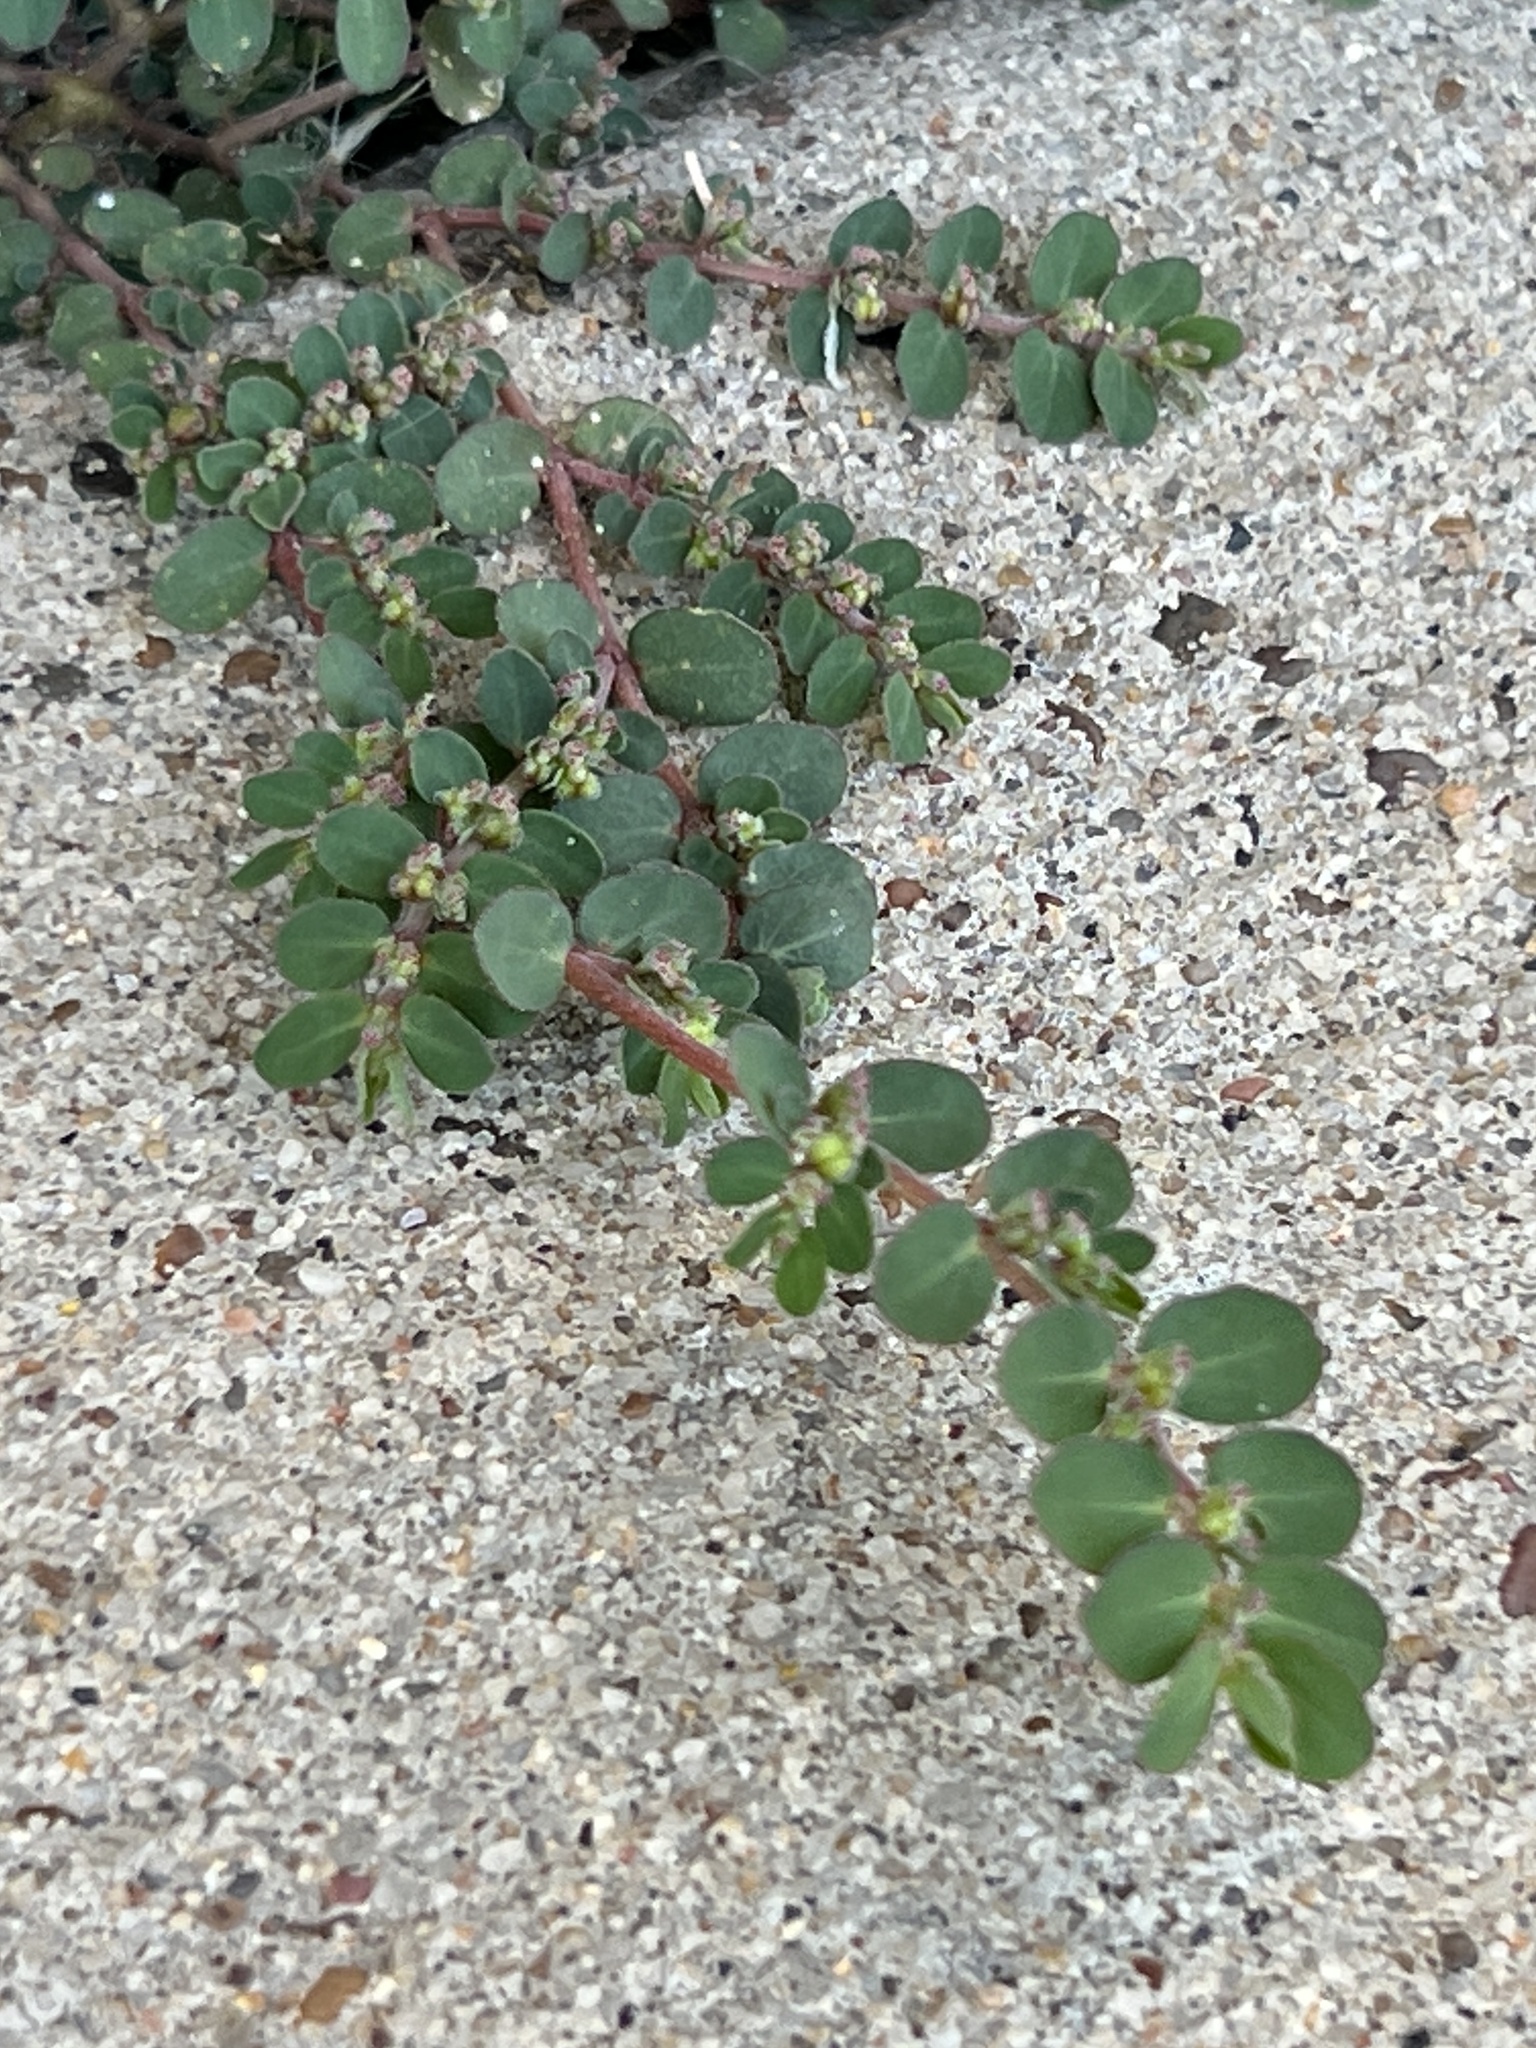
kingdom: Plantae
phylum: Tracheophyta
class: Magnoliopsida
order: Malpighiales
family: Euphorbiaceae
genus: Euphorbia
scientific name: Euphorbia prostrata
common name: Prostrate sandmat
